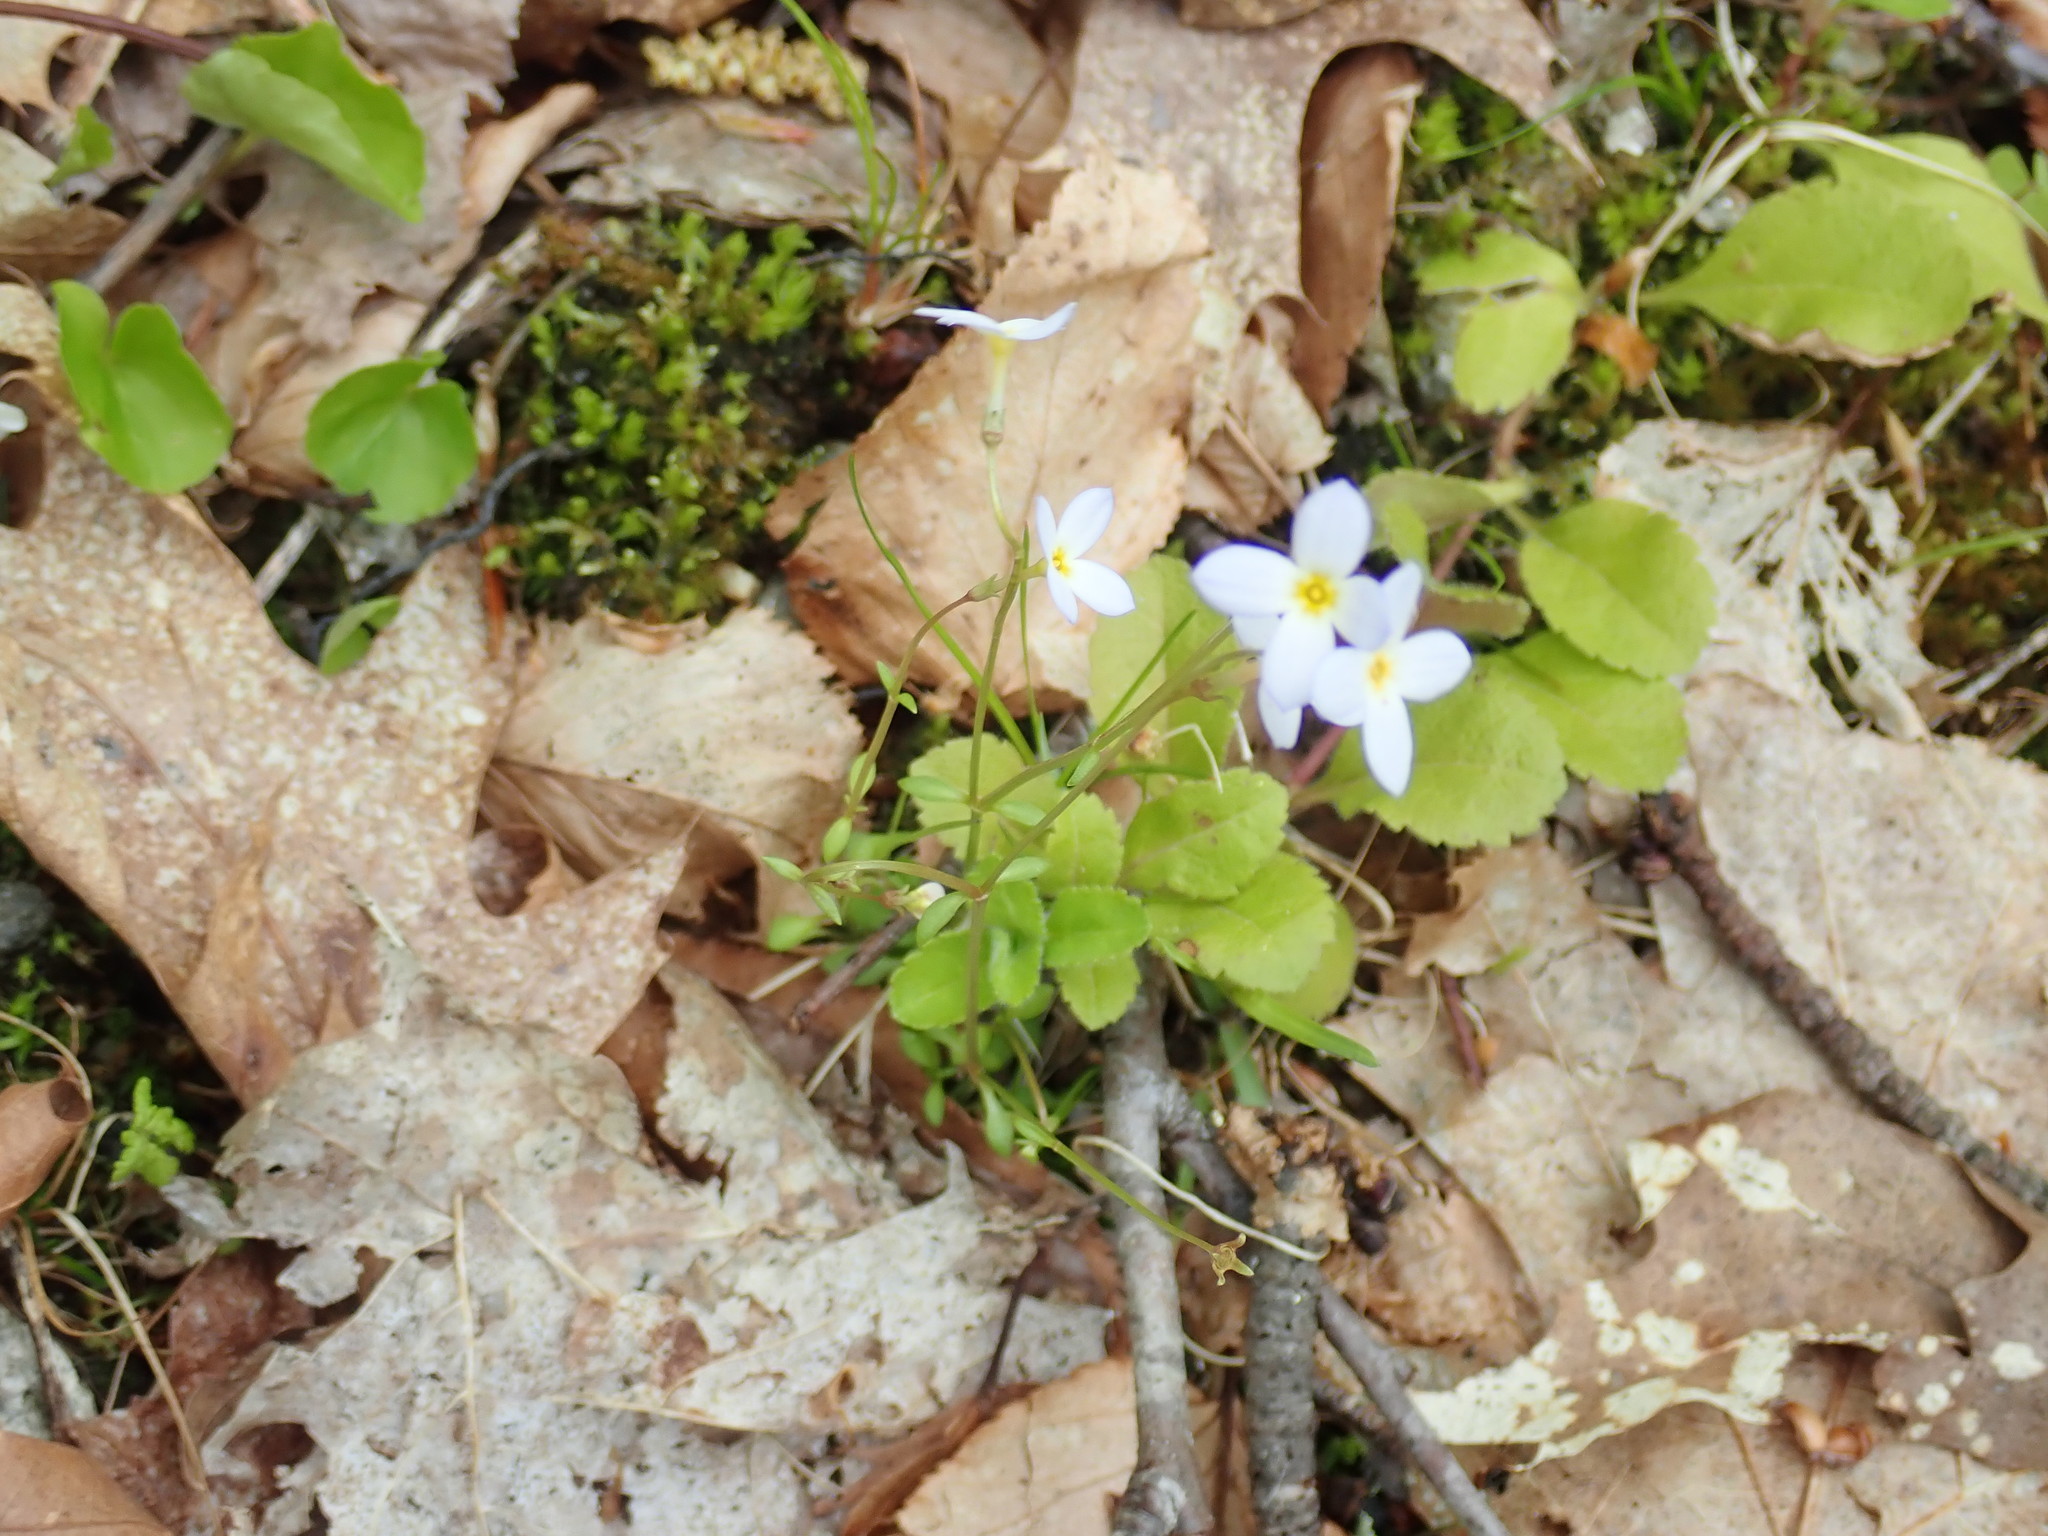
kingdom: Plantae
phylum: Tracheophyta
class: Magnoliopsida
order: Gentianales
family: Rubiaceae
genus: Houstonia
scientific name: Houstonia caerulea
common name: Bluets
